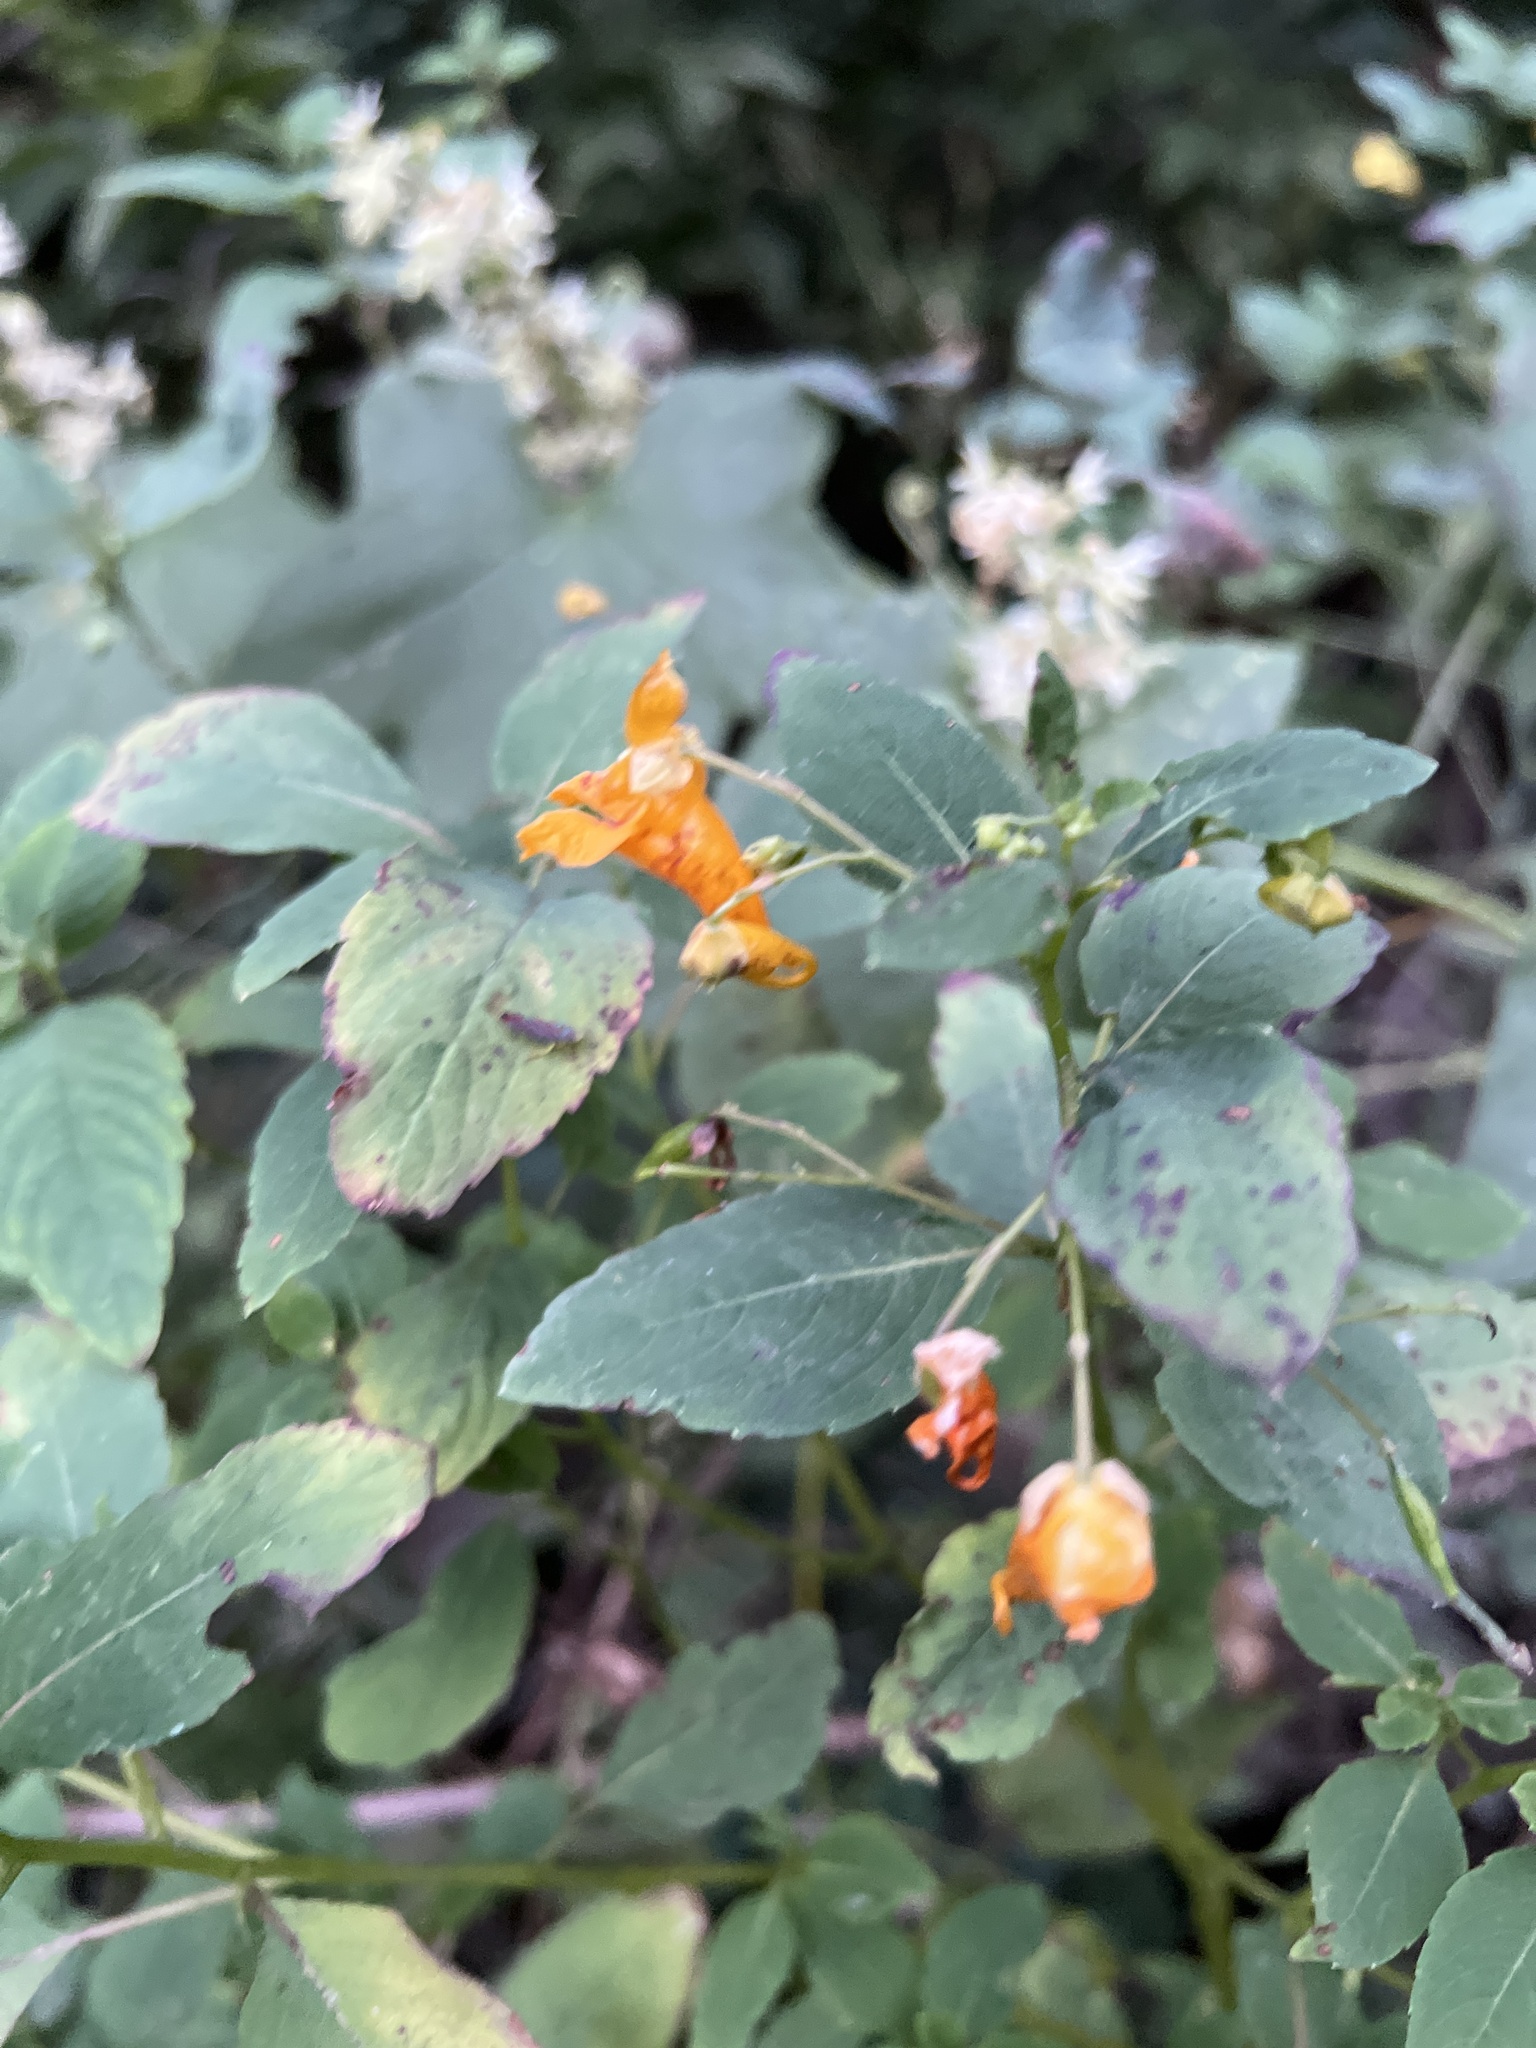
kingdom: Plantae
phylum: Tracheophyta
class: Magnoliopsida
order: Ericales
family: Balsaminaceae
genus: Impatiens
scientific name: Impatiens capensis
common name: Orange balsam
